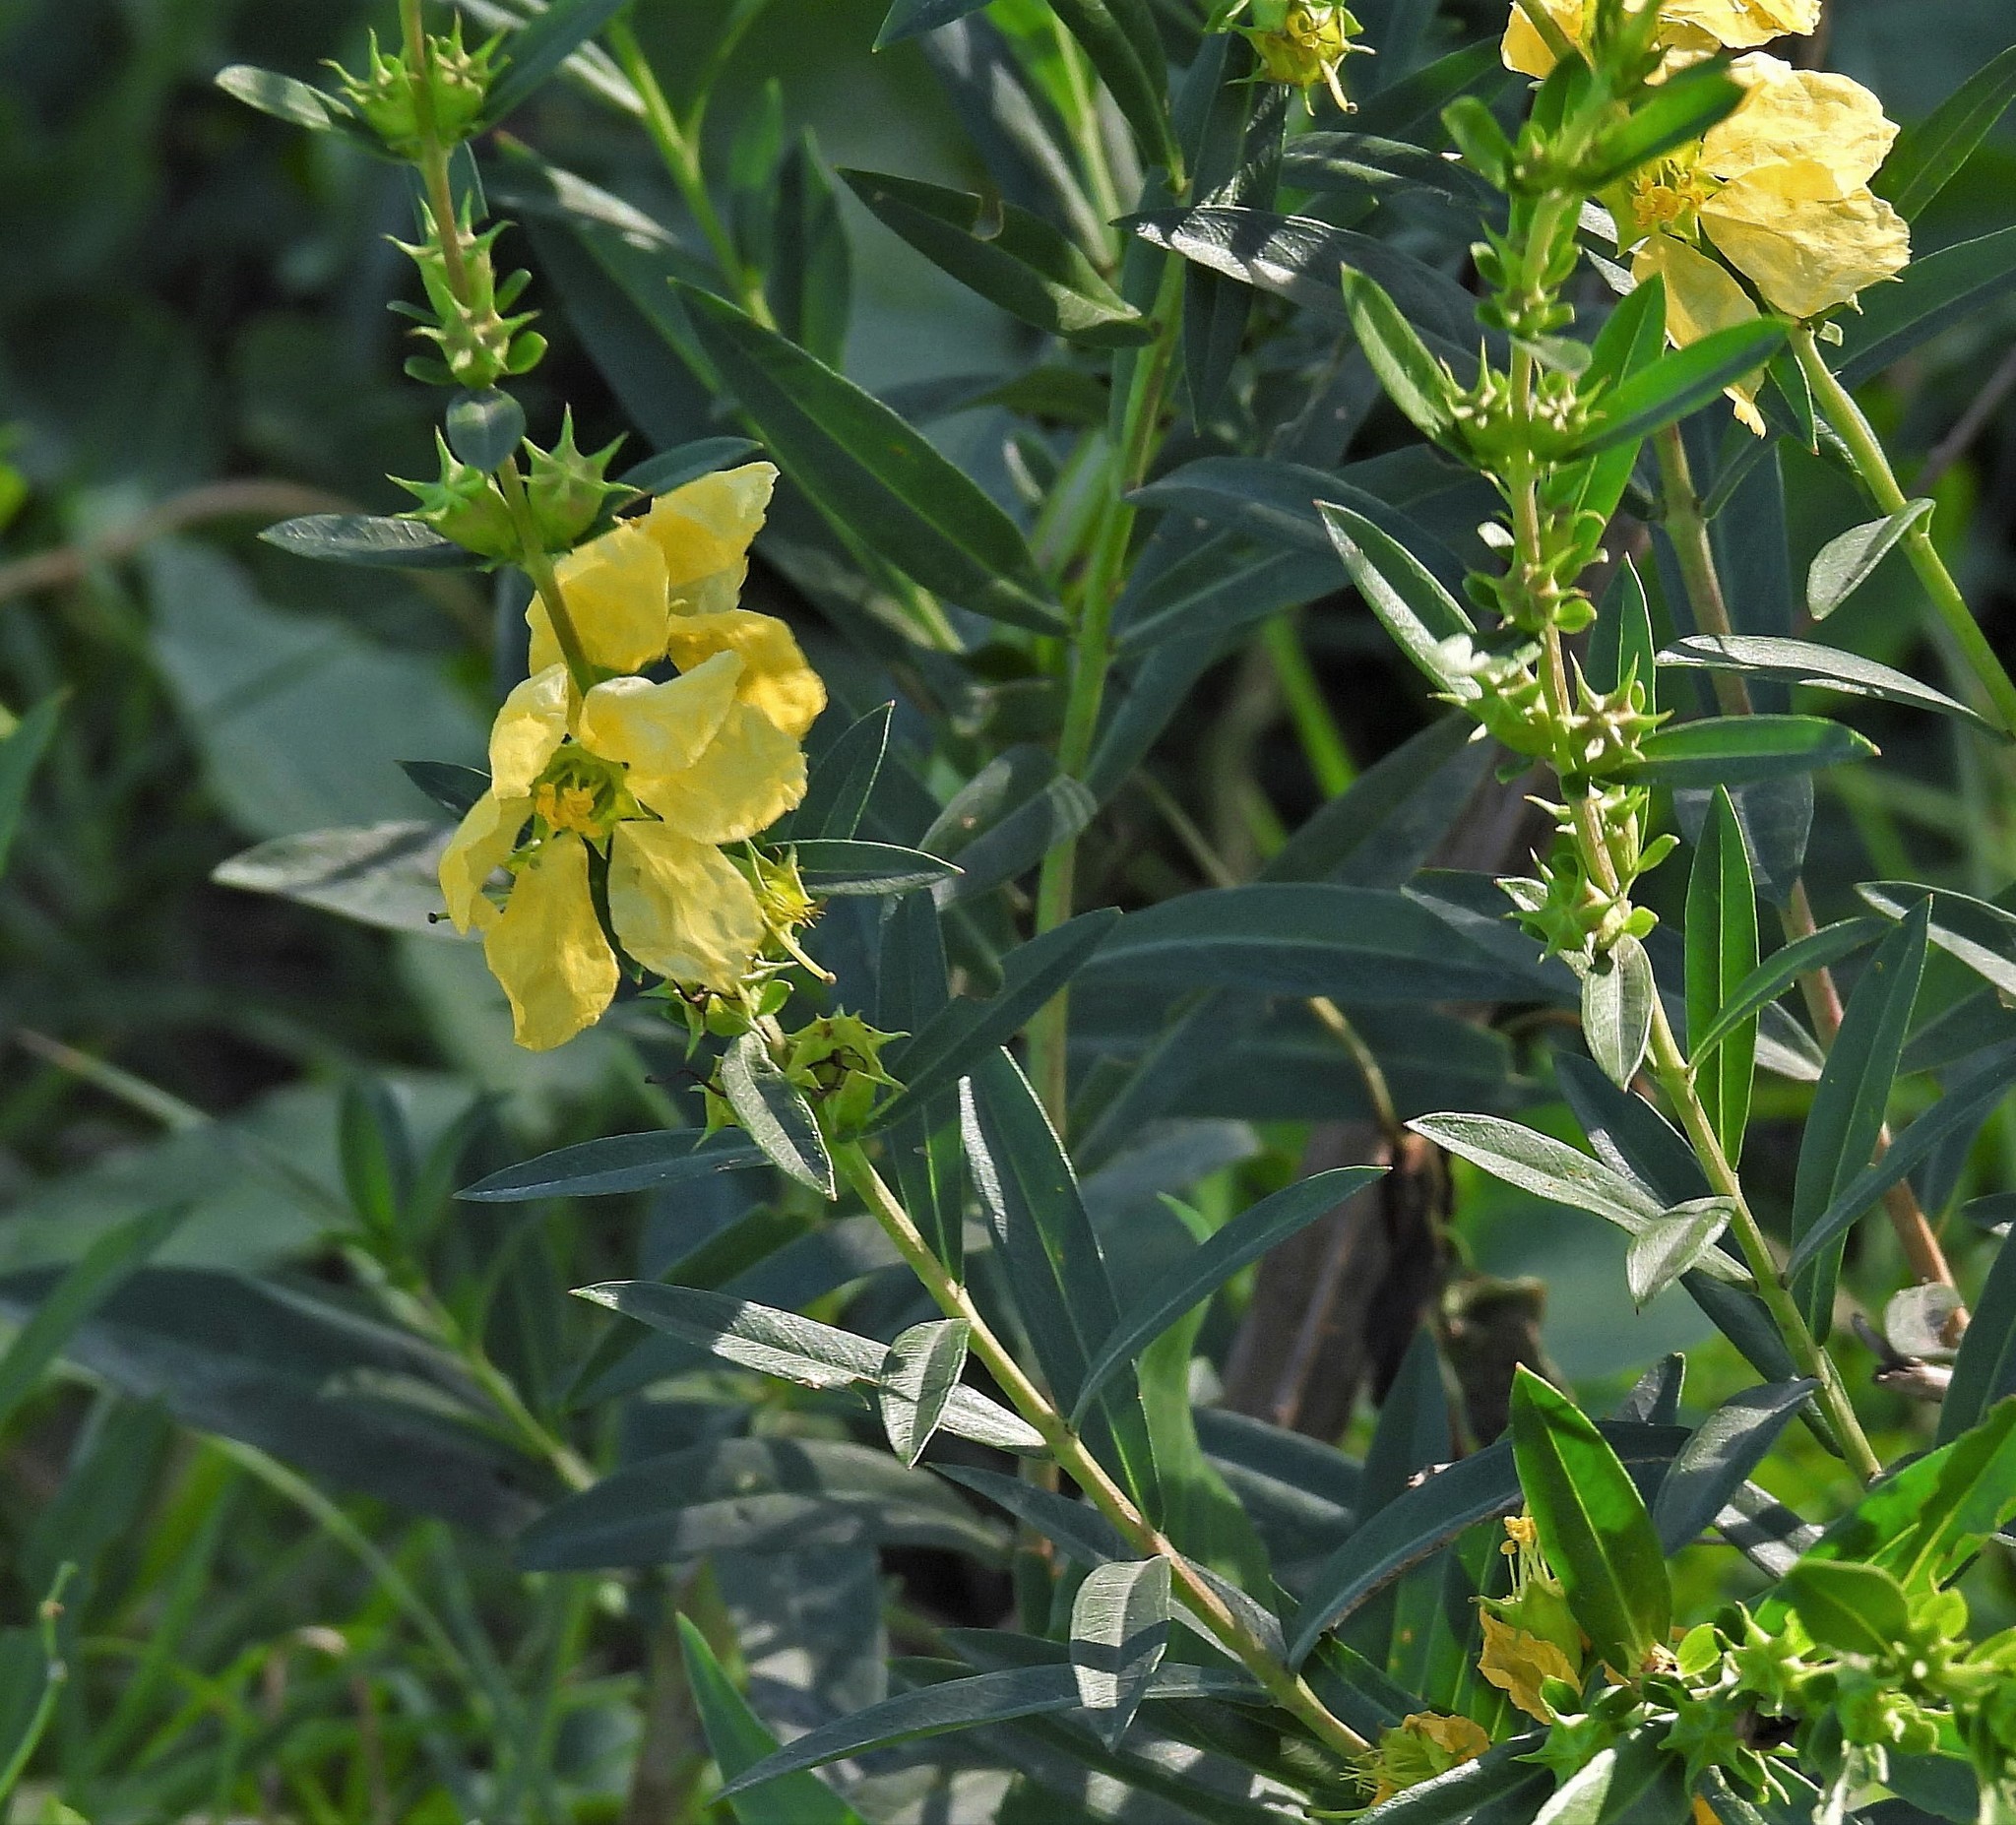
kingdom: Plantae
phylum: Tracheophyta
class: Magnoliopsida
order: Myrtales
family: Lythraceae
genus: Heimia
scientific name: Heimia salicifolia
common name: Willow-leaf heimia
